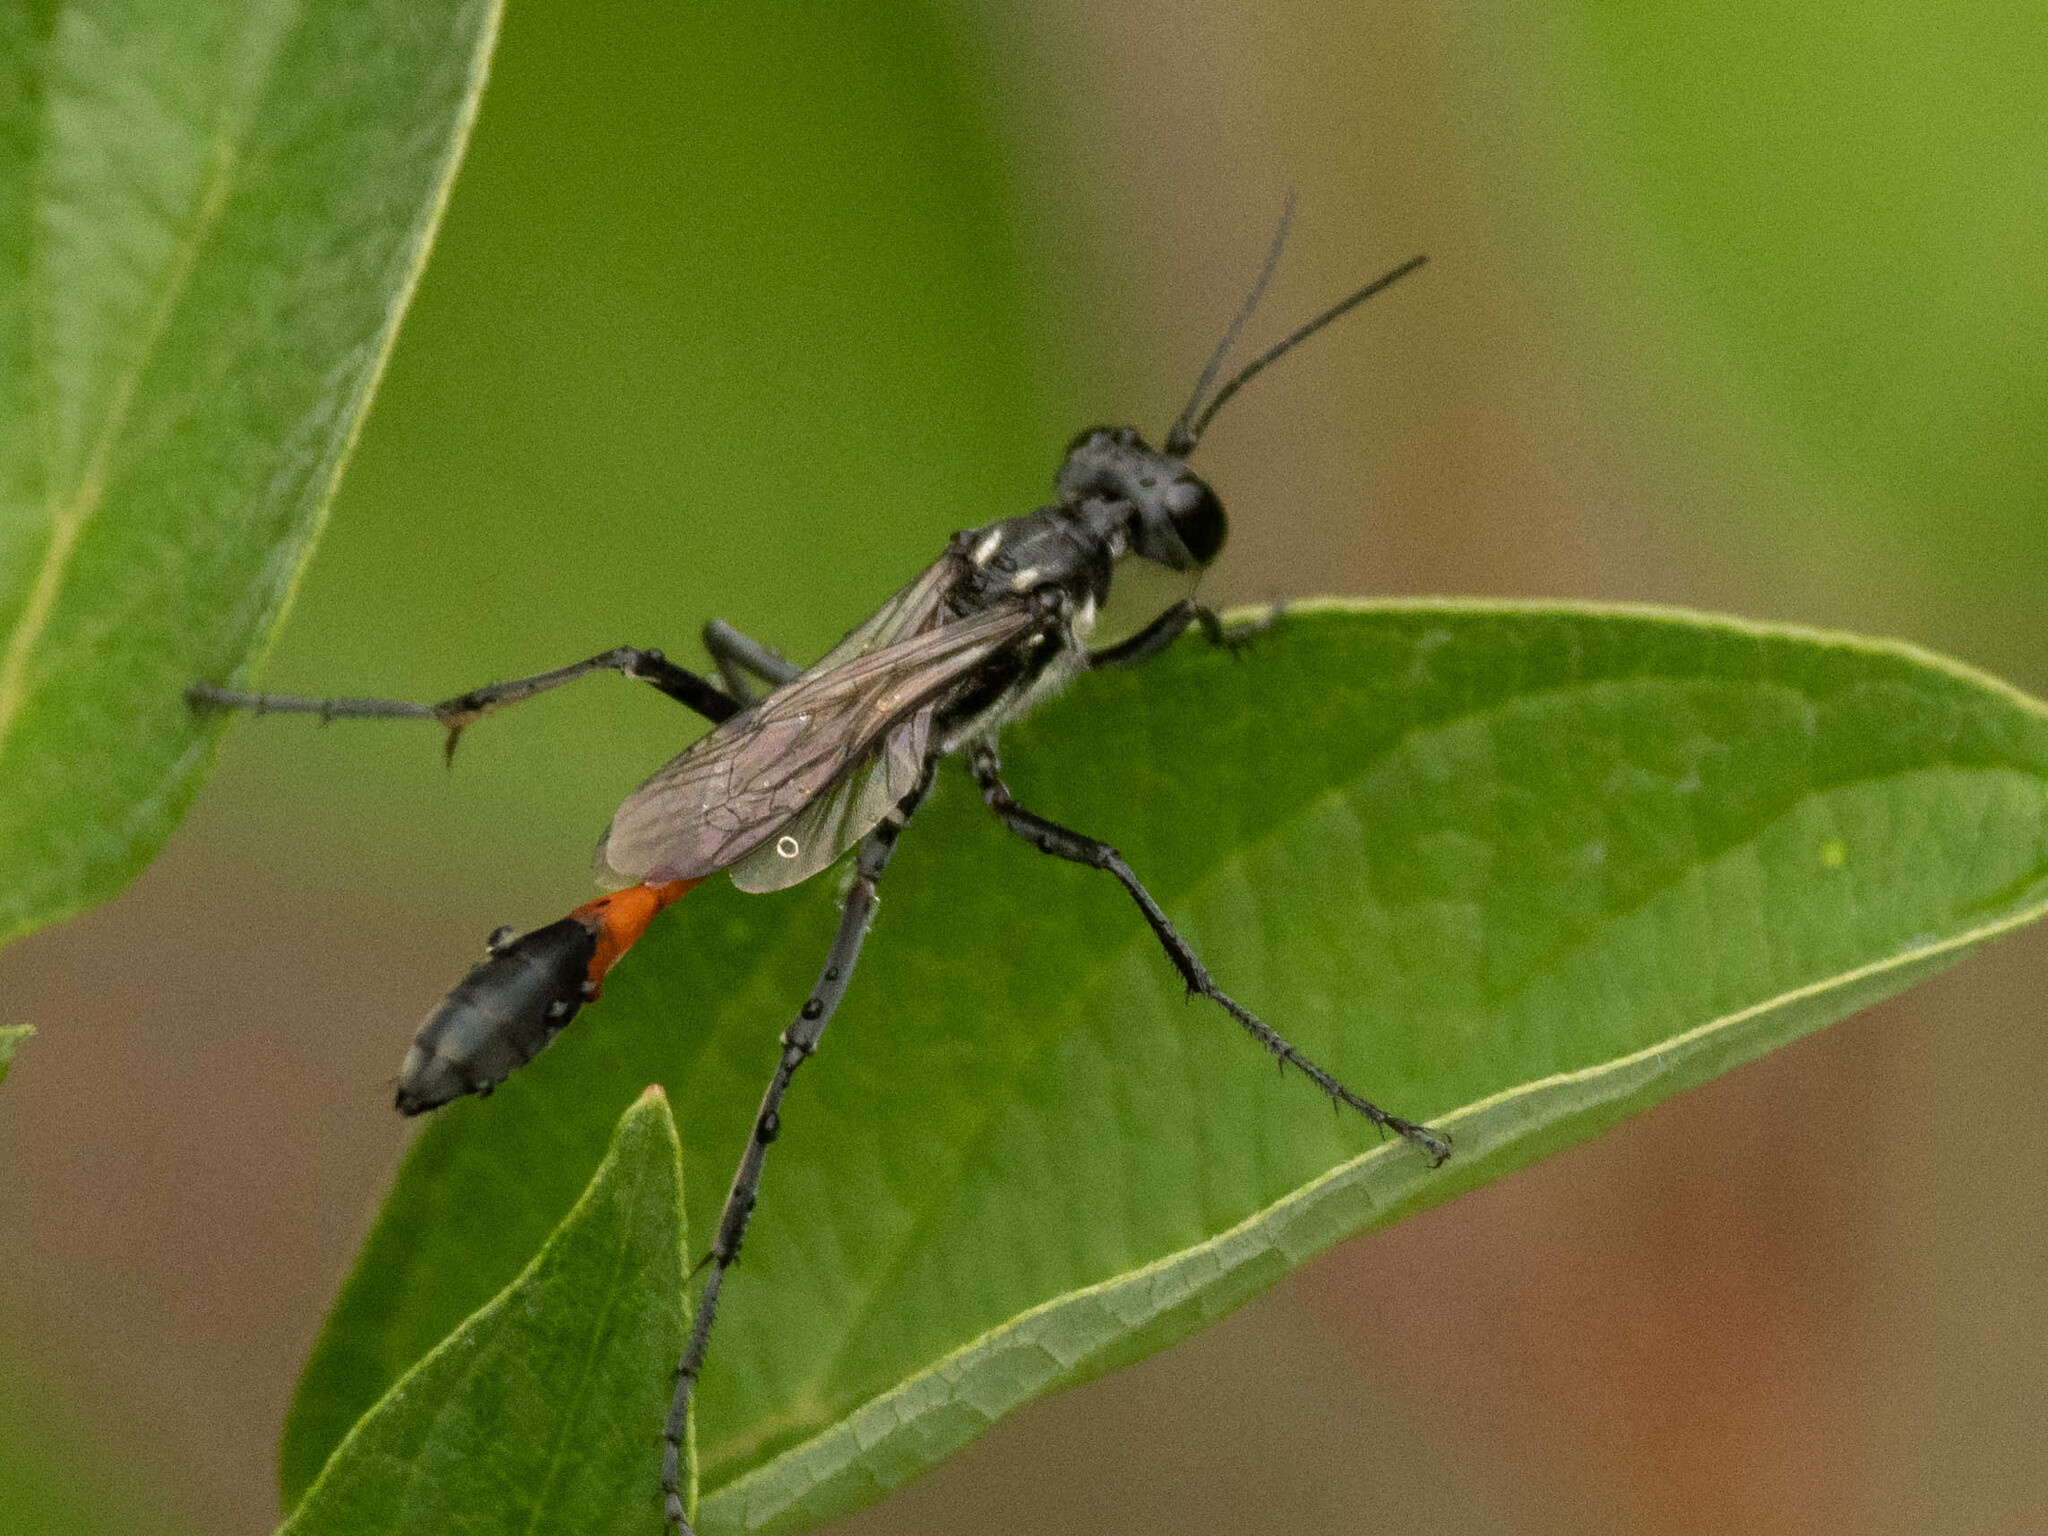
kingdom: Animalia
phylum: Arthropoda
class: Insecta
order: Hymenoptera
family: Sphecidae
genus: Ammophila
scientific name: Ammophila procera
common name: Common thread-waisted wasp
